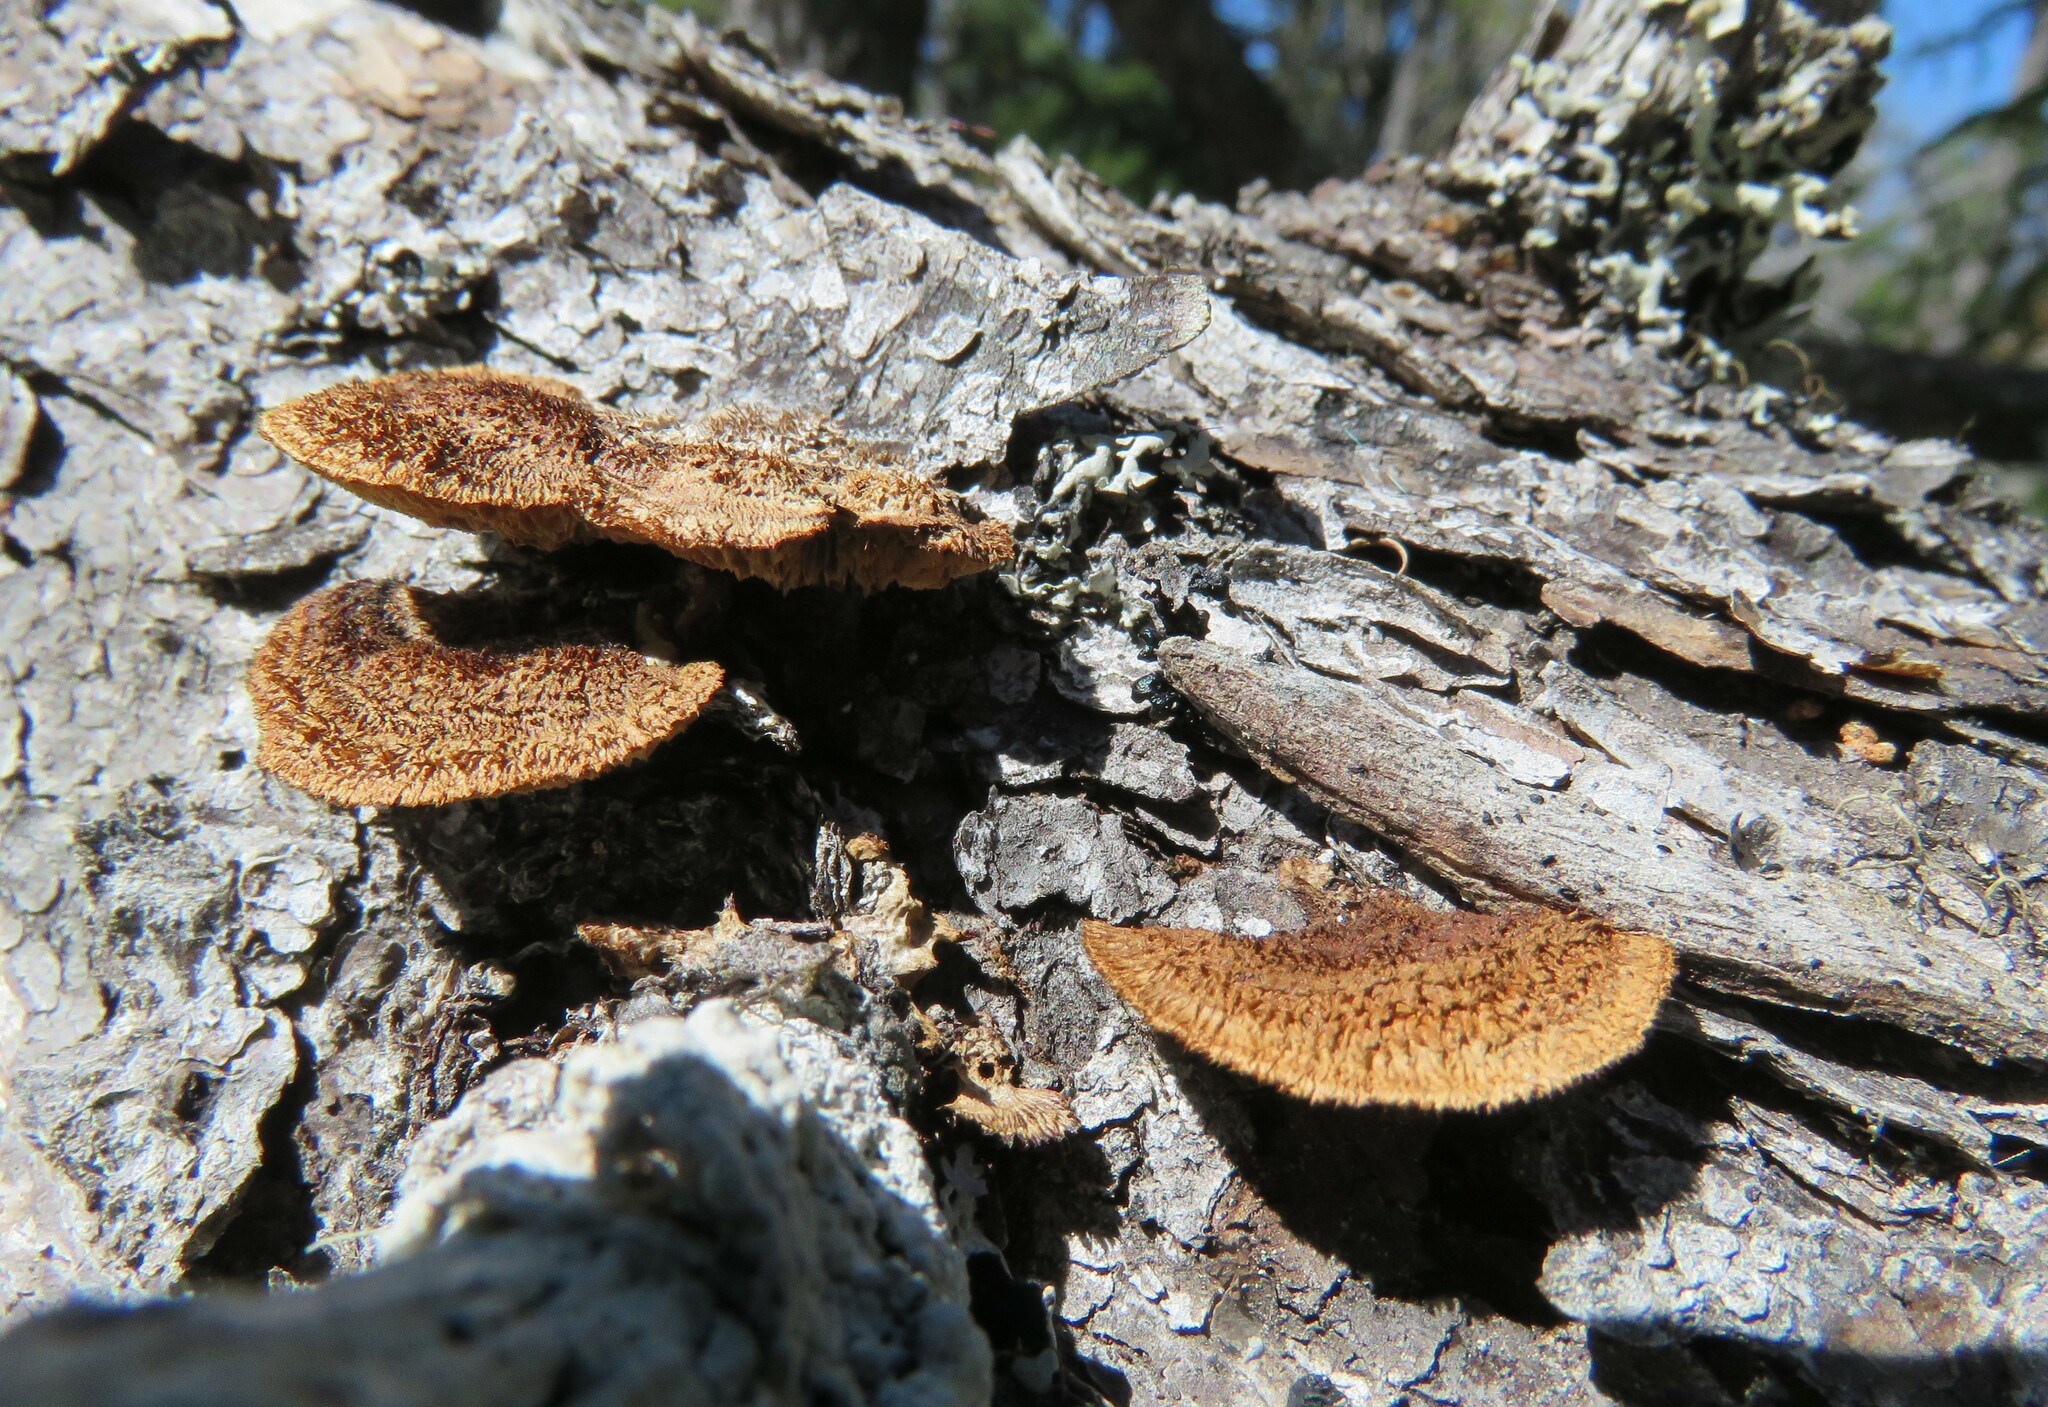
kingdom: Fungi
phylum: Basidiomycota
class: Agaricomycetes
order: Gloeophyllales
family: Gloeophyllaceae
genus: Gloeophyllum
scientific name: Gloeophyllum sepiarium
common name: Conifer mazegill
